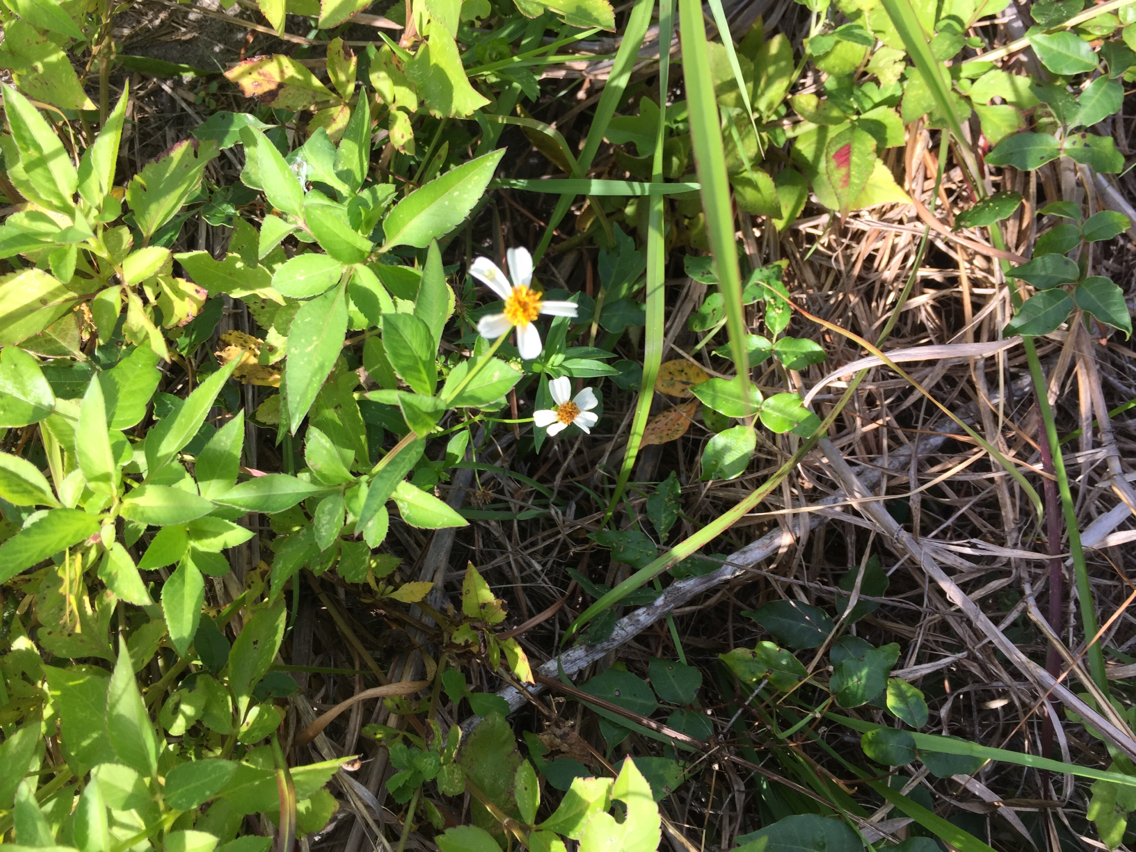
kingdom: Plantae
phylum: Tracheophyta
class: Magnoliopsida
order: Asterales
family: Asteraceae
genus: Bidens
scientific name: Bidens alba
